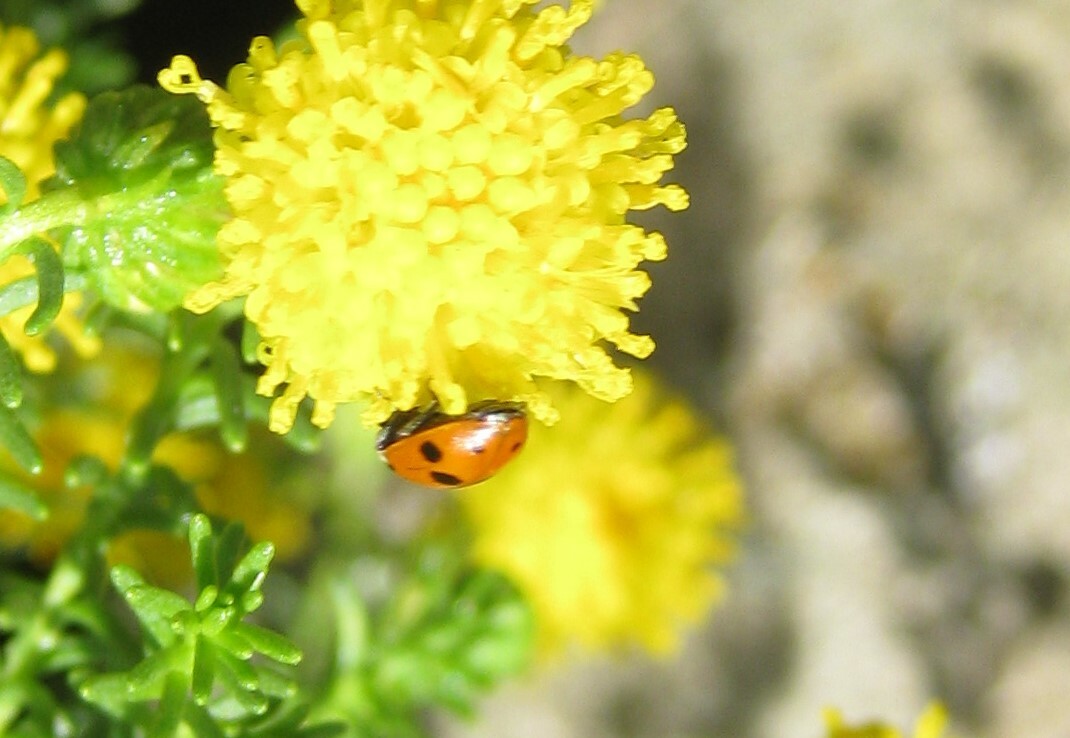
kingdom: Animalia
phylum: Arthropoda
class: Insecta
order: Coleoptera
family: Coccinellidae
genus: Hippodamia
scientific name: Hippodamia variegata
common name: Ladybird beetle
